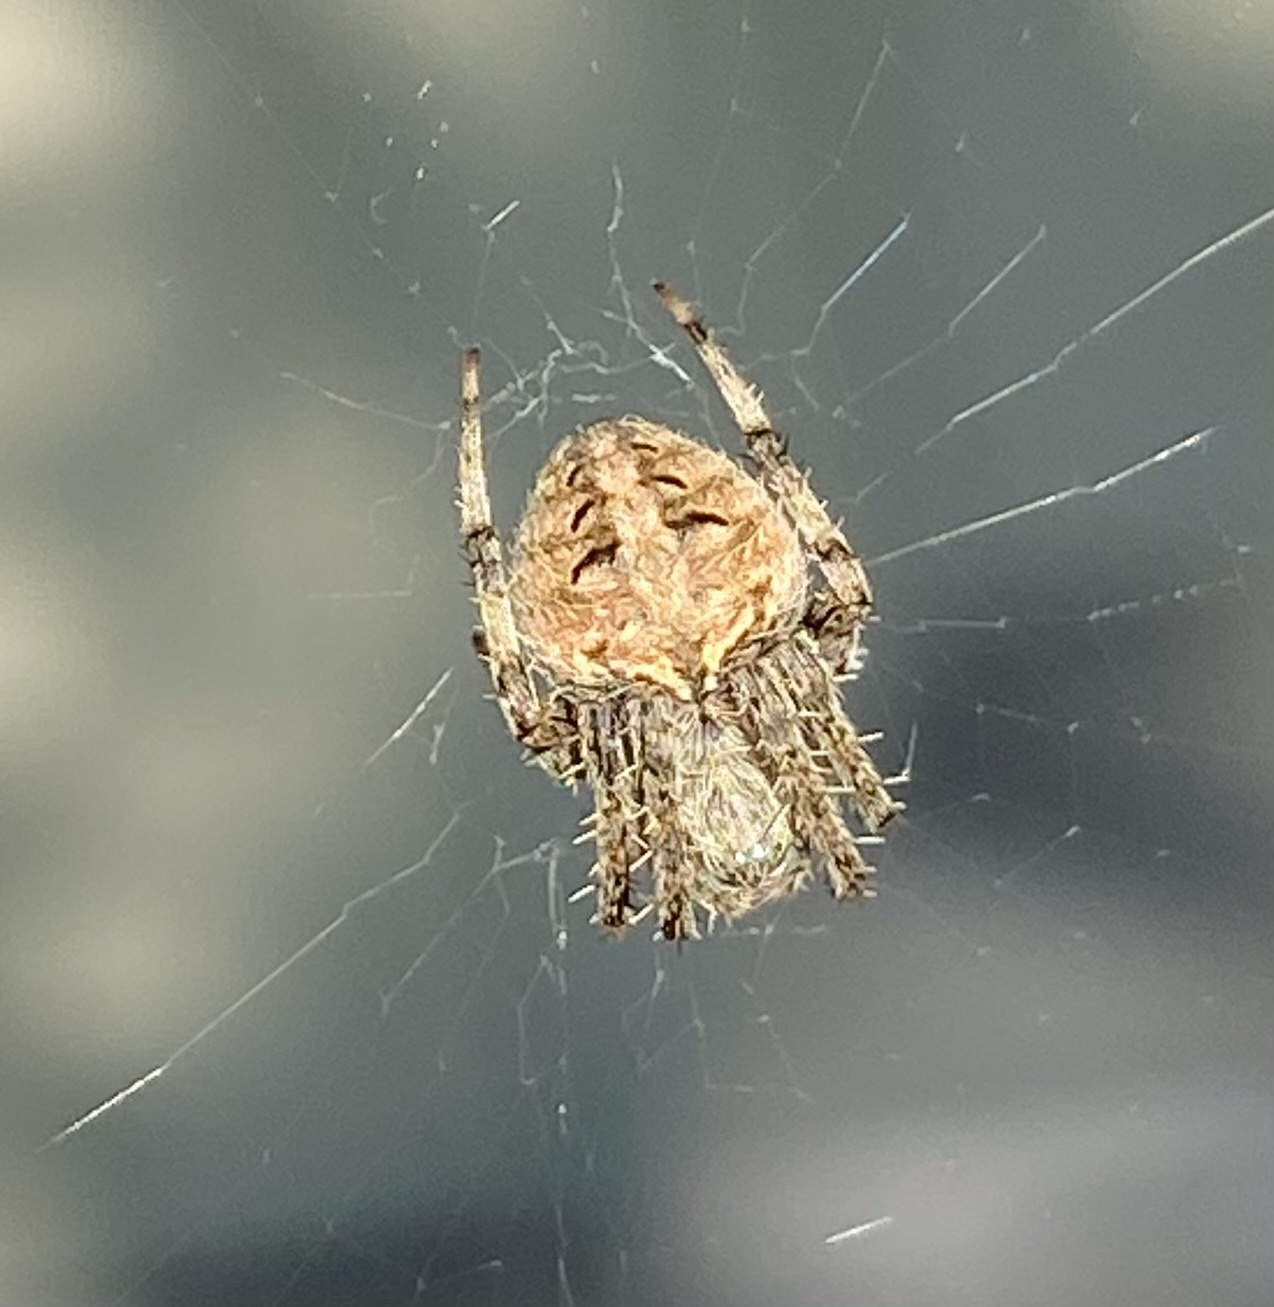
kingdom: Animalia
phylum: Arthropoda
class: Arachnida
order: Araneae
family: Araneidae
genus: Neoscona
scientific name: Neoscona crucifera
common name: Spotted orbweaver
